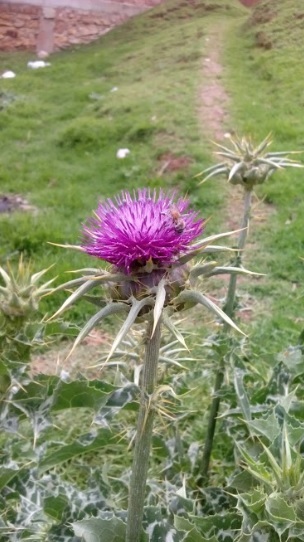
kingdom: Plantae
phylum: Tracheophyta
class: Magnoliopsida
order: Asterales
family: Asteraceae
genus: Silybum
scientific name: Silybum marianum
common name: Milk thistle
